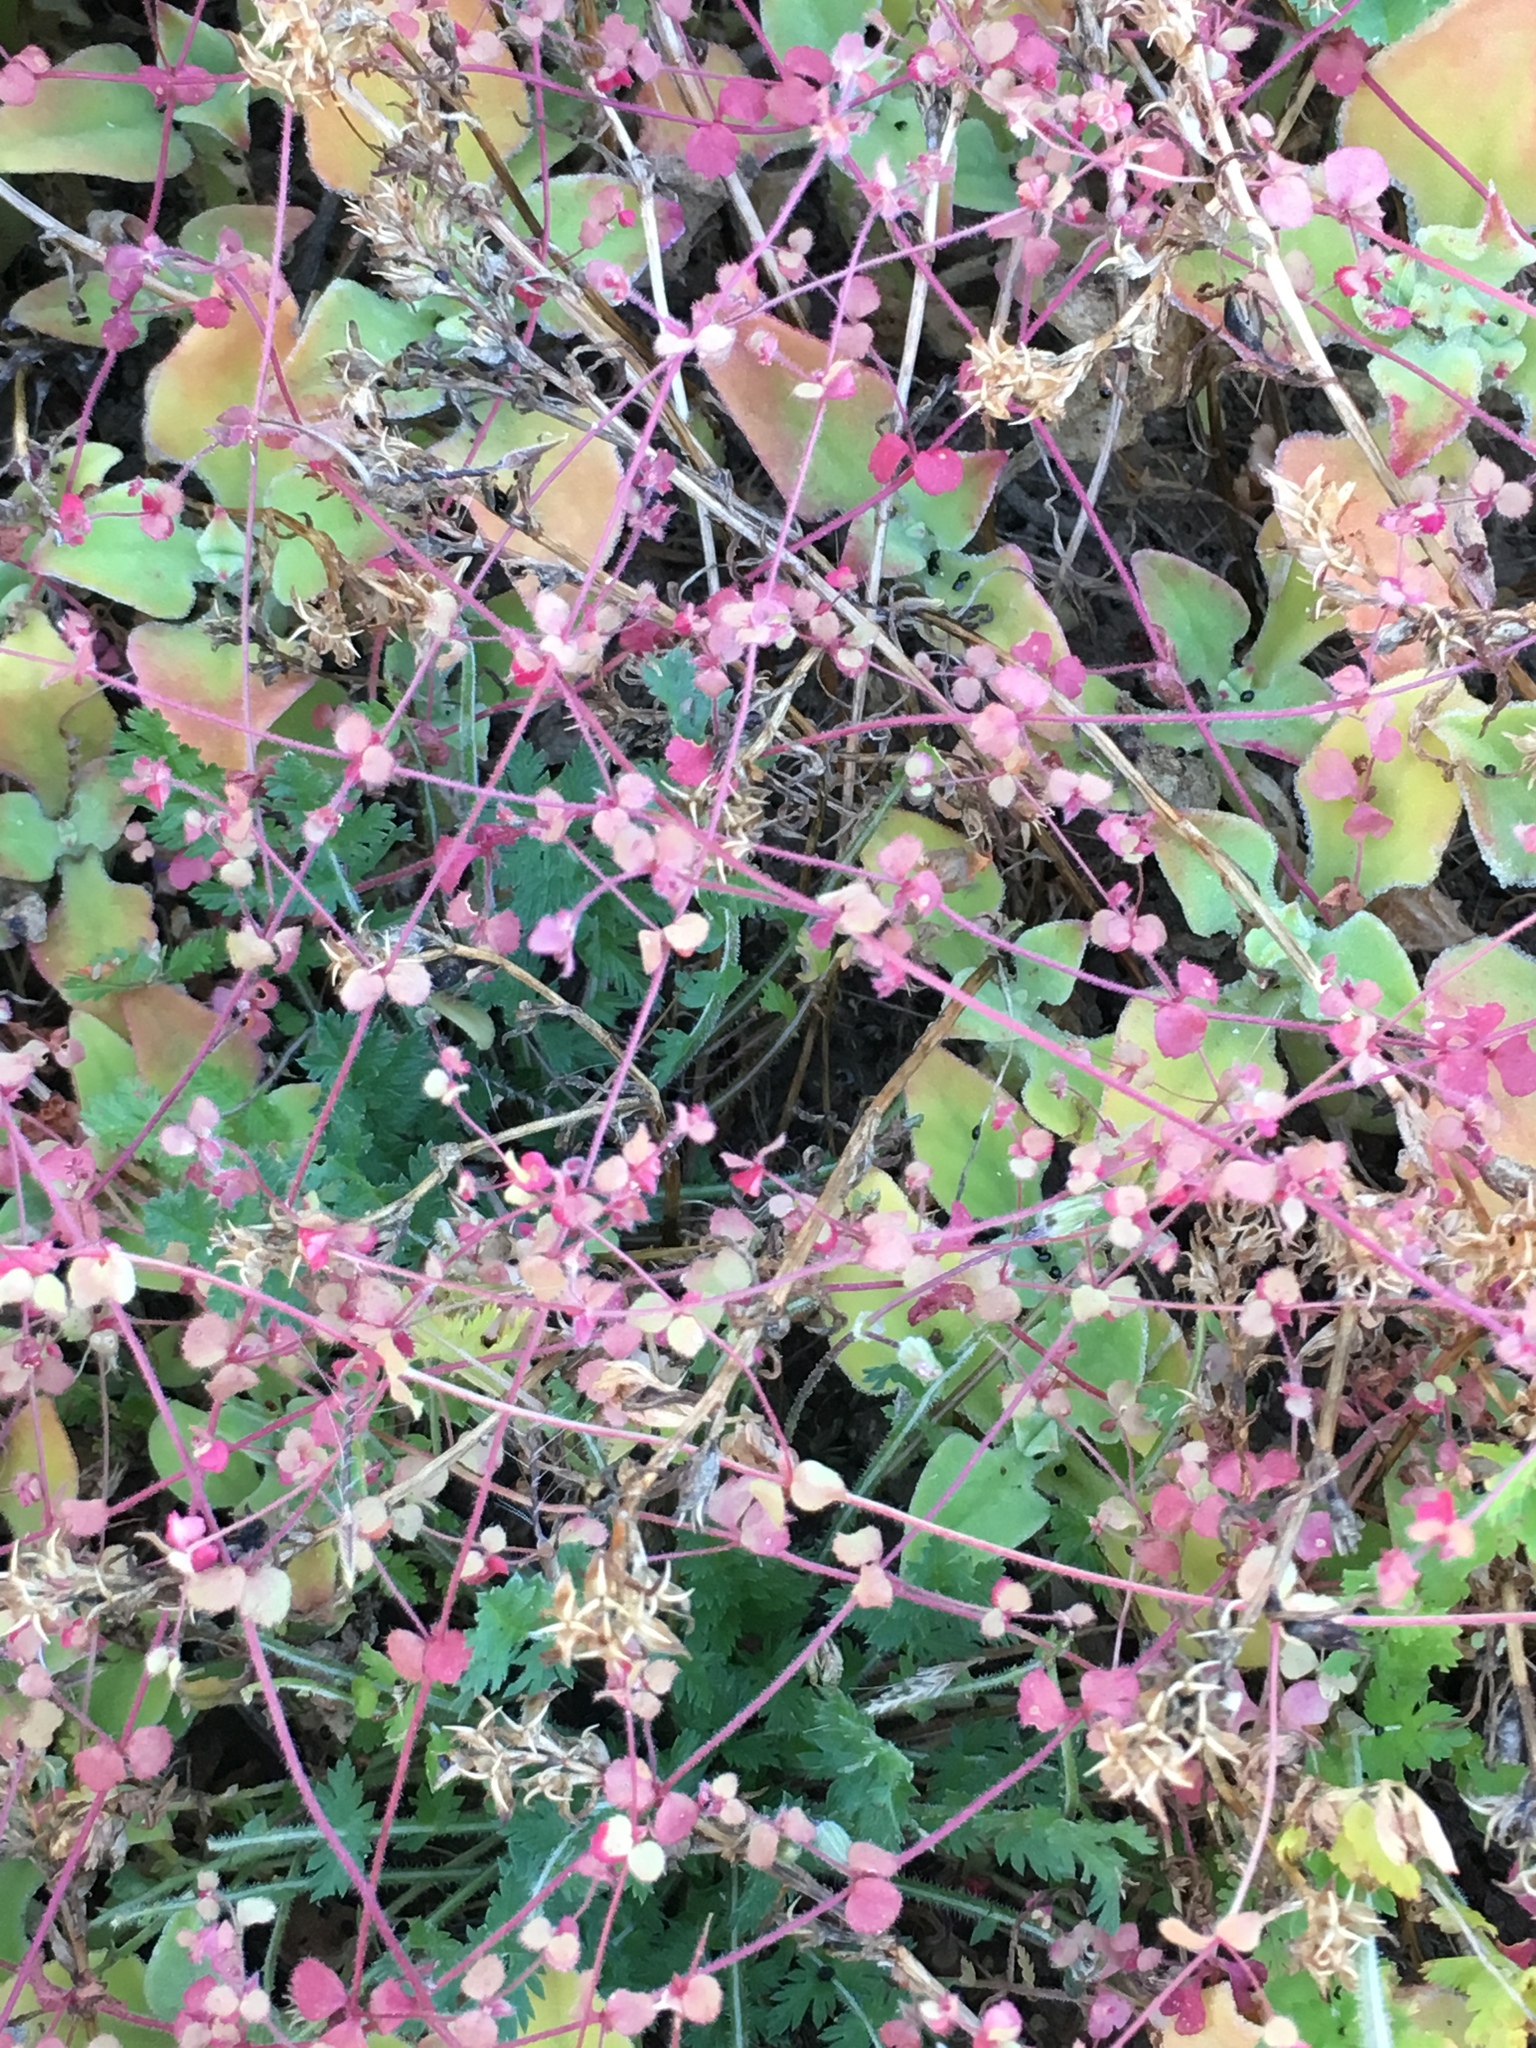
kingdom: Plantae
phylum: Tracheophyta
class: Magnoliopsida
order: Caryophyllales
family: Polygonaceae
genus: Pterostegia
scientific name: Pterostegia drymarioides
